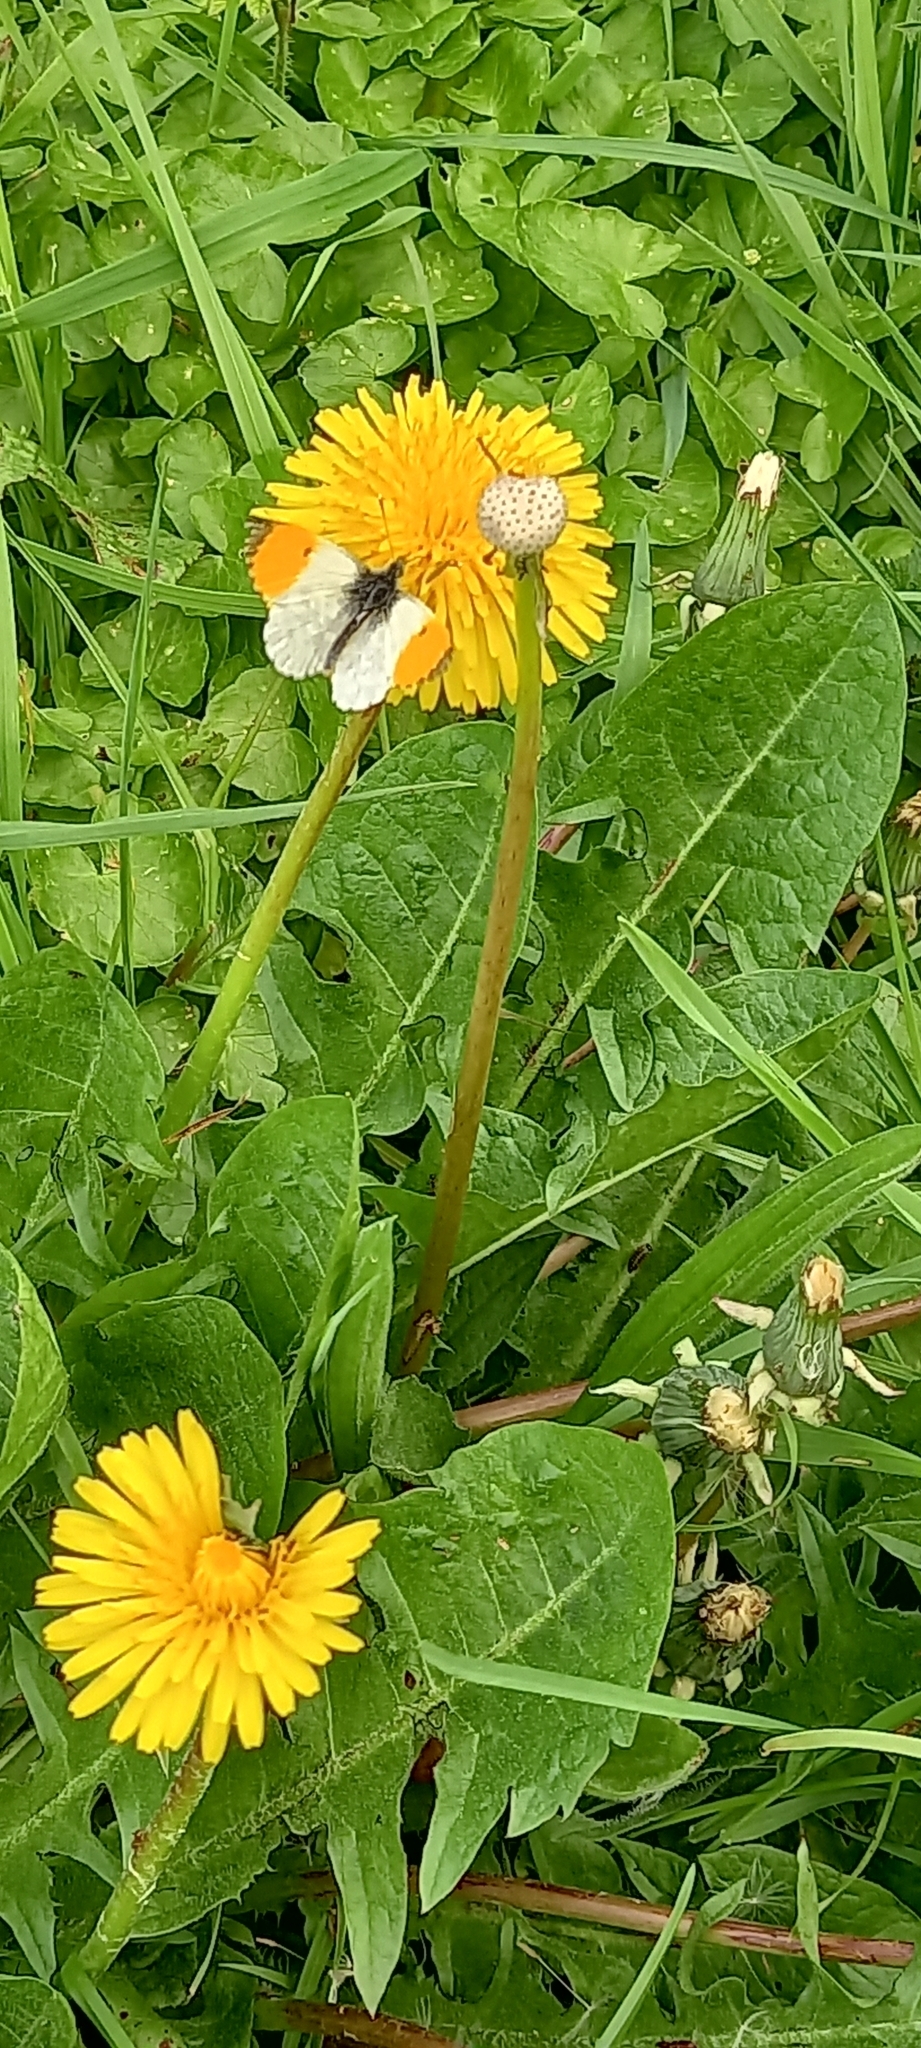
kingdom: Animalia
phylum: Arthropoda
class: Insecta
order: Lepidoptera
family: Pieridae
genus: Anthocharis
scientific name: Anthocharis cardamines
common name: Orange-tip
